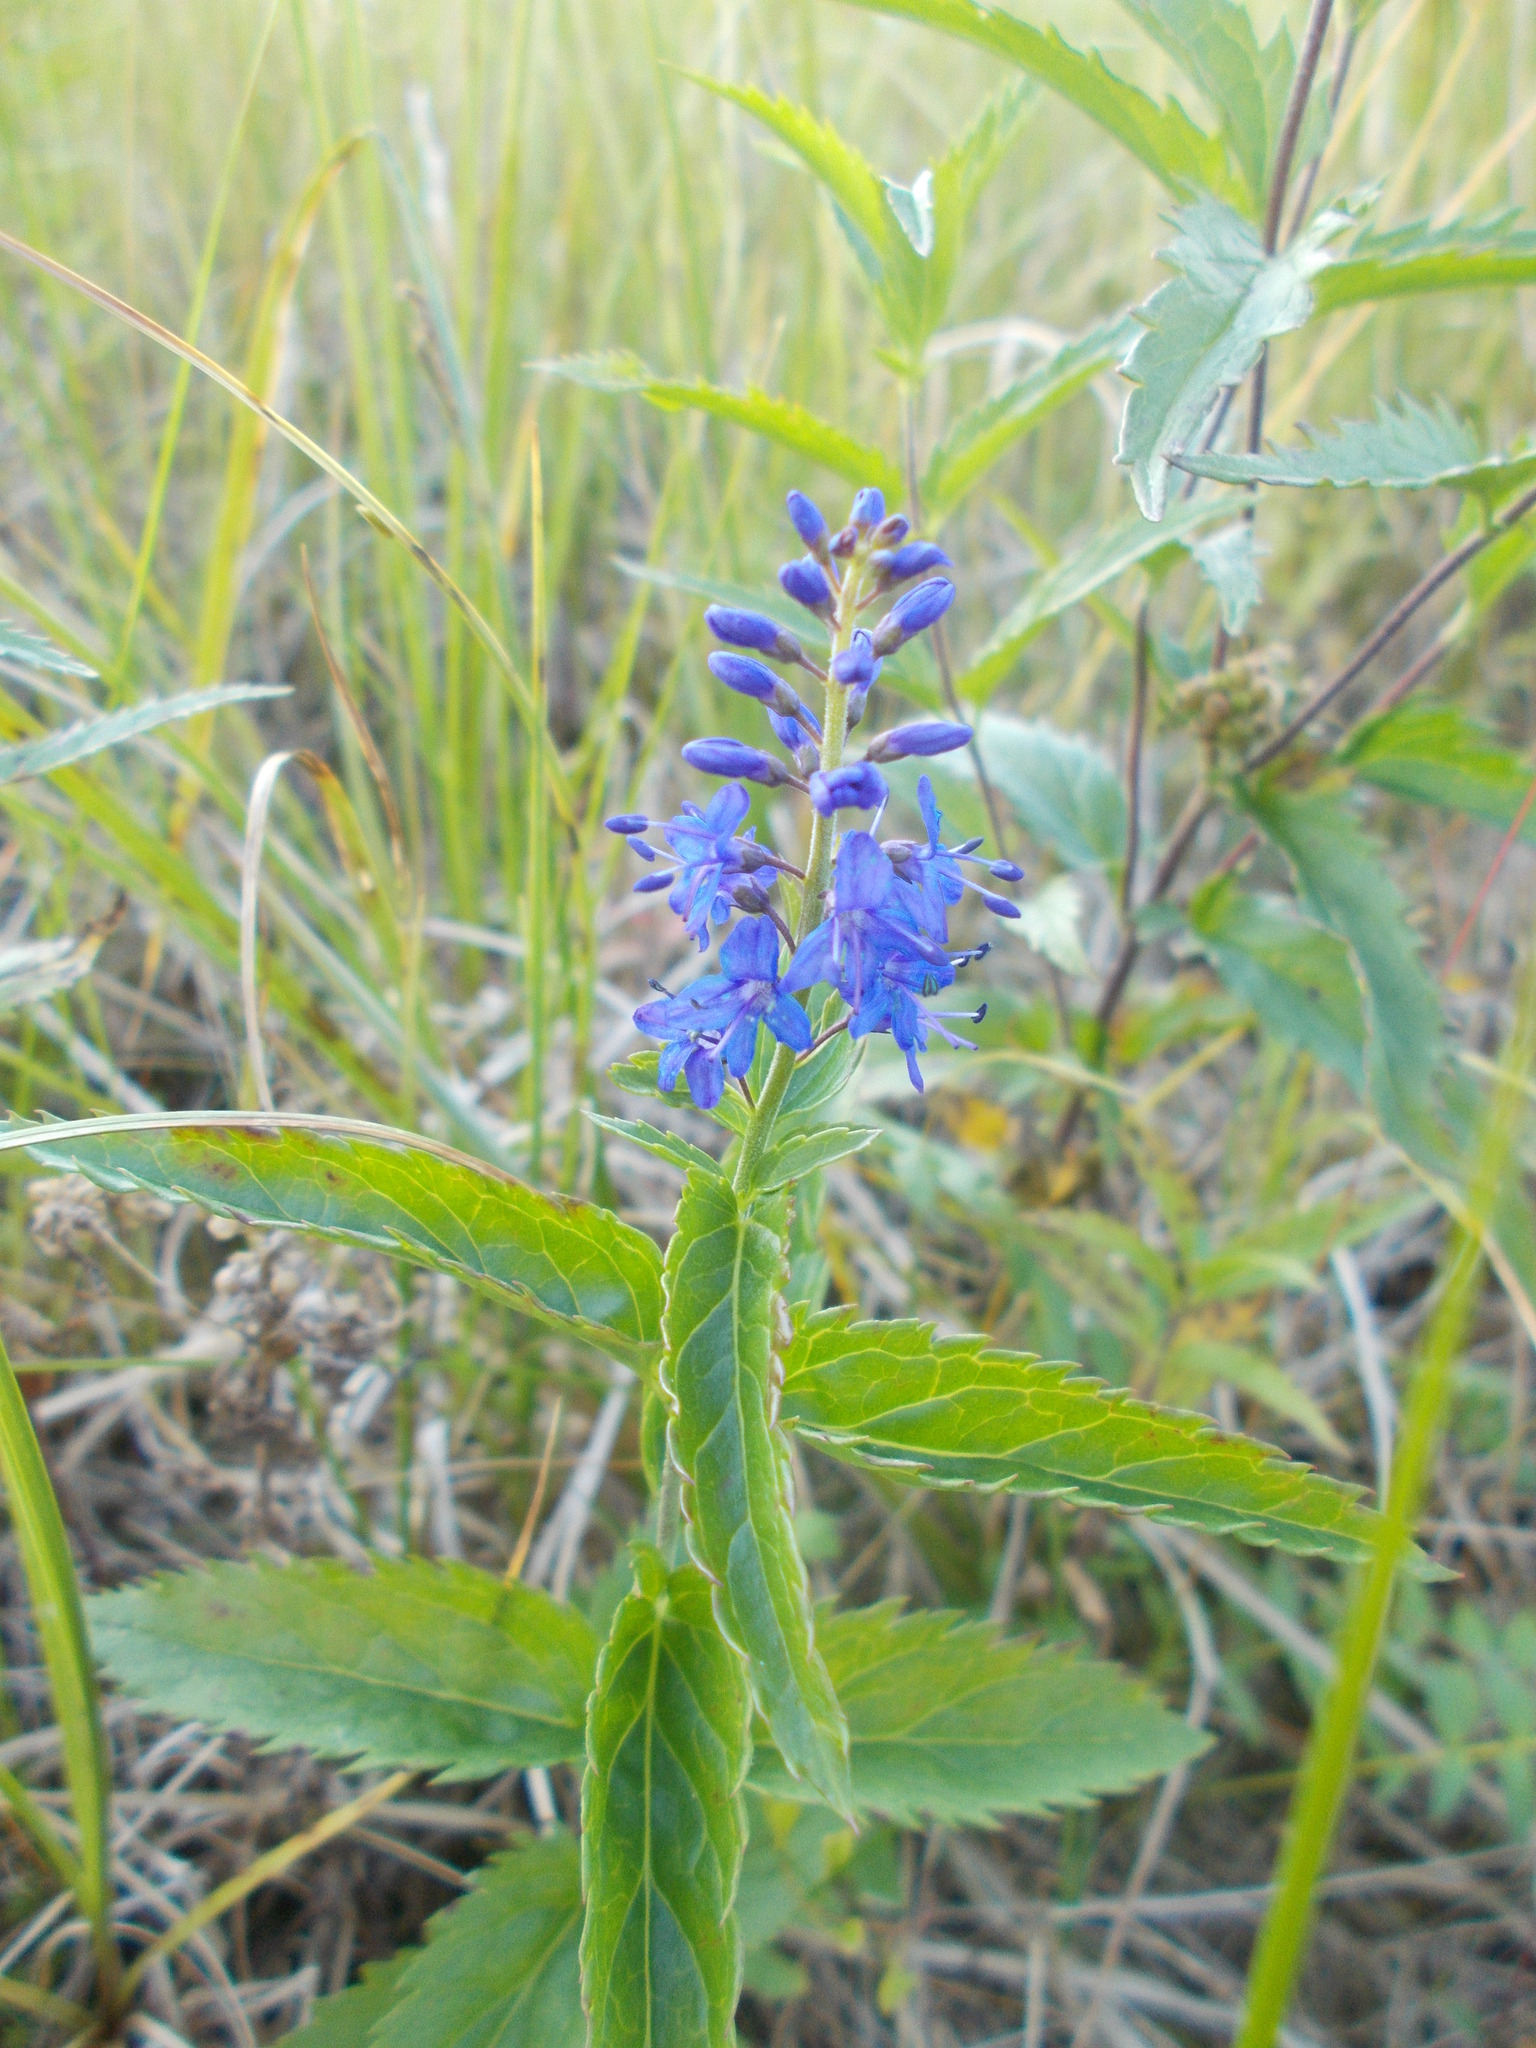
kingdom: Plantae
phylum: Tracheophyta
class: Magnoliopsida
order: Lamiales
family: Plantaginaceae
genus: Veronica
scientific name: Veronica longifolia
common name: Garden speedwell
